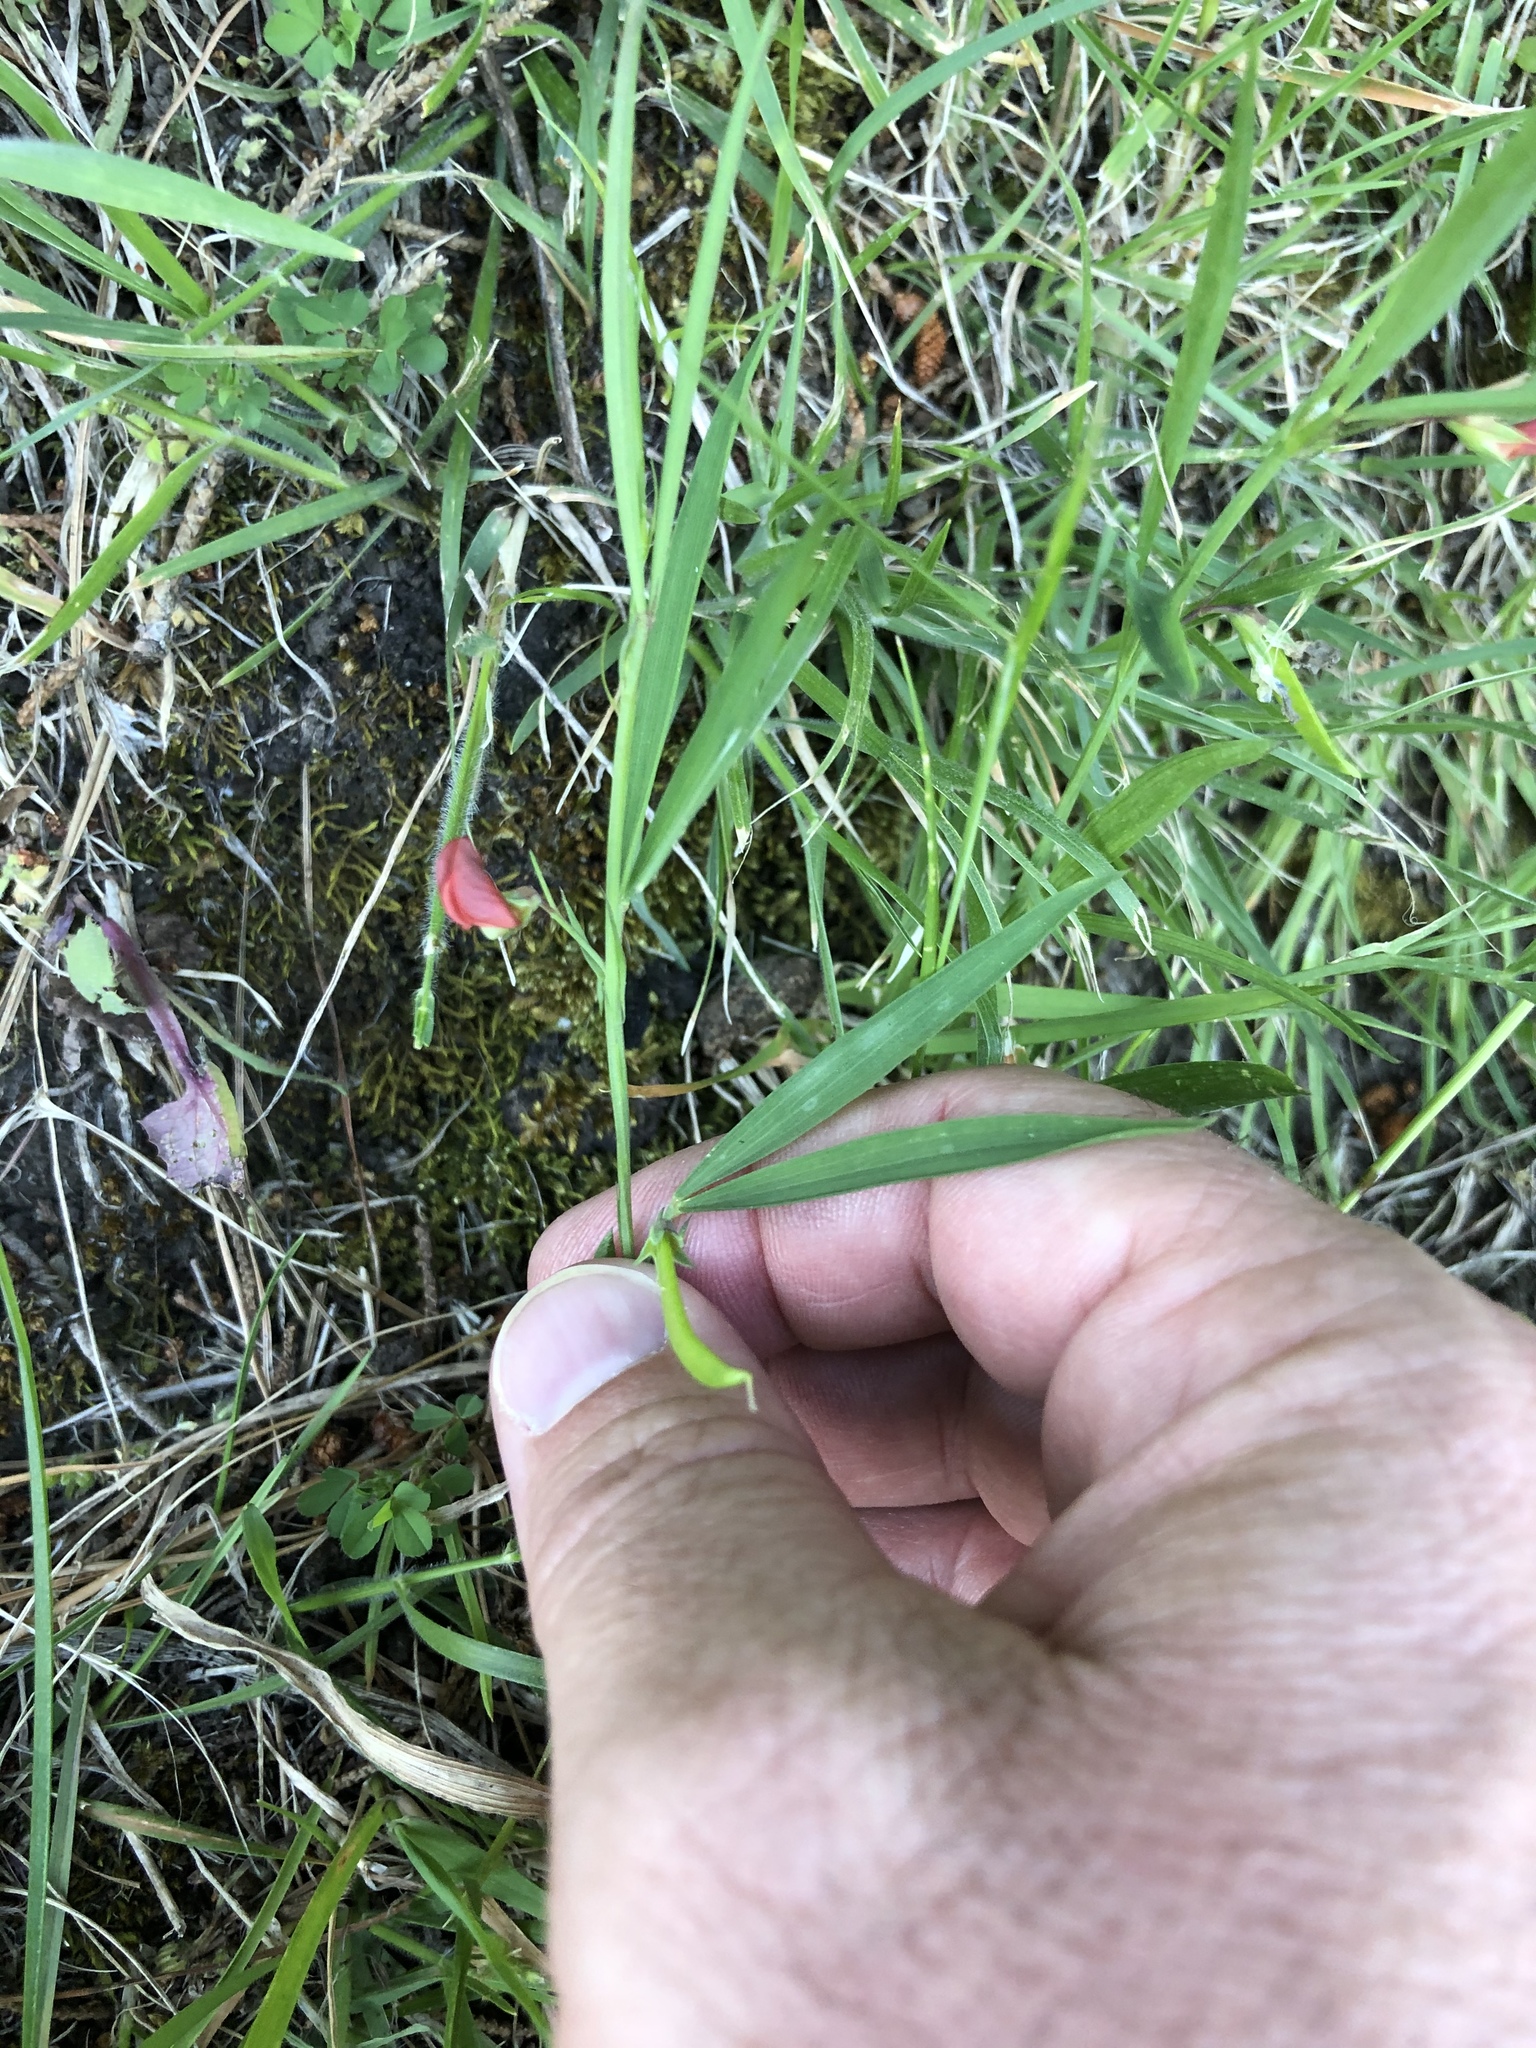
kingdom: Plantae
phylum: Tracheophyta
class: Magnoliopsida
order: Fabales
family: Fabaceae
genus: Lathyrus
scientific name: Lathyrus sphaericus
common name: Grass pea
